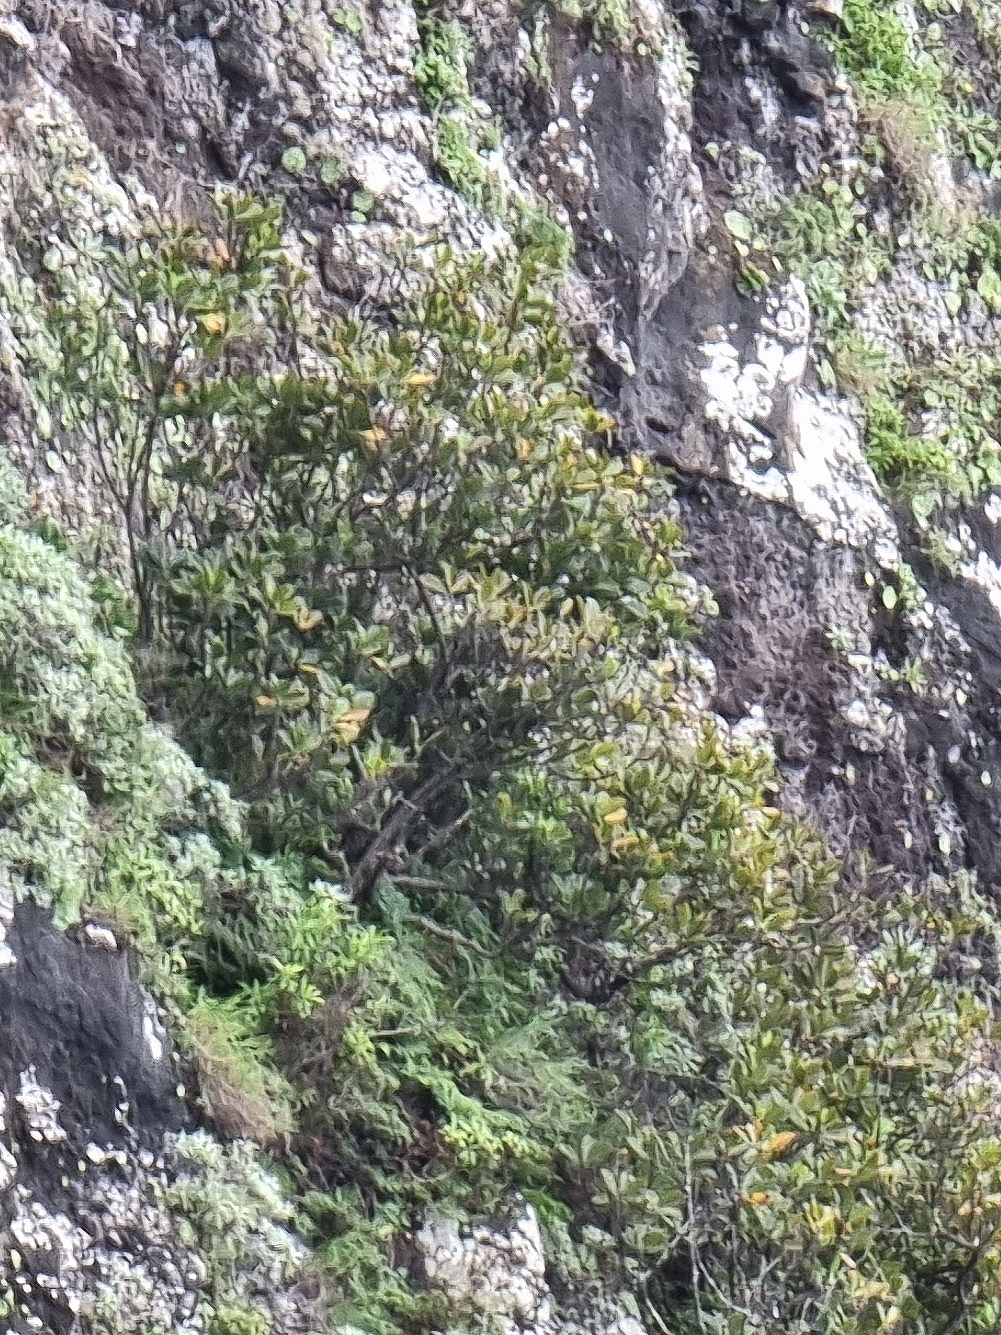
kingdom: Plantae
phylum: Tracheophyta
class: Magnoliopsida
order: Ericales
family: Sapotaceae
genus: Sideroxylon
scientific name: Sideroxylon mirmulans
